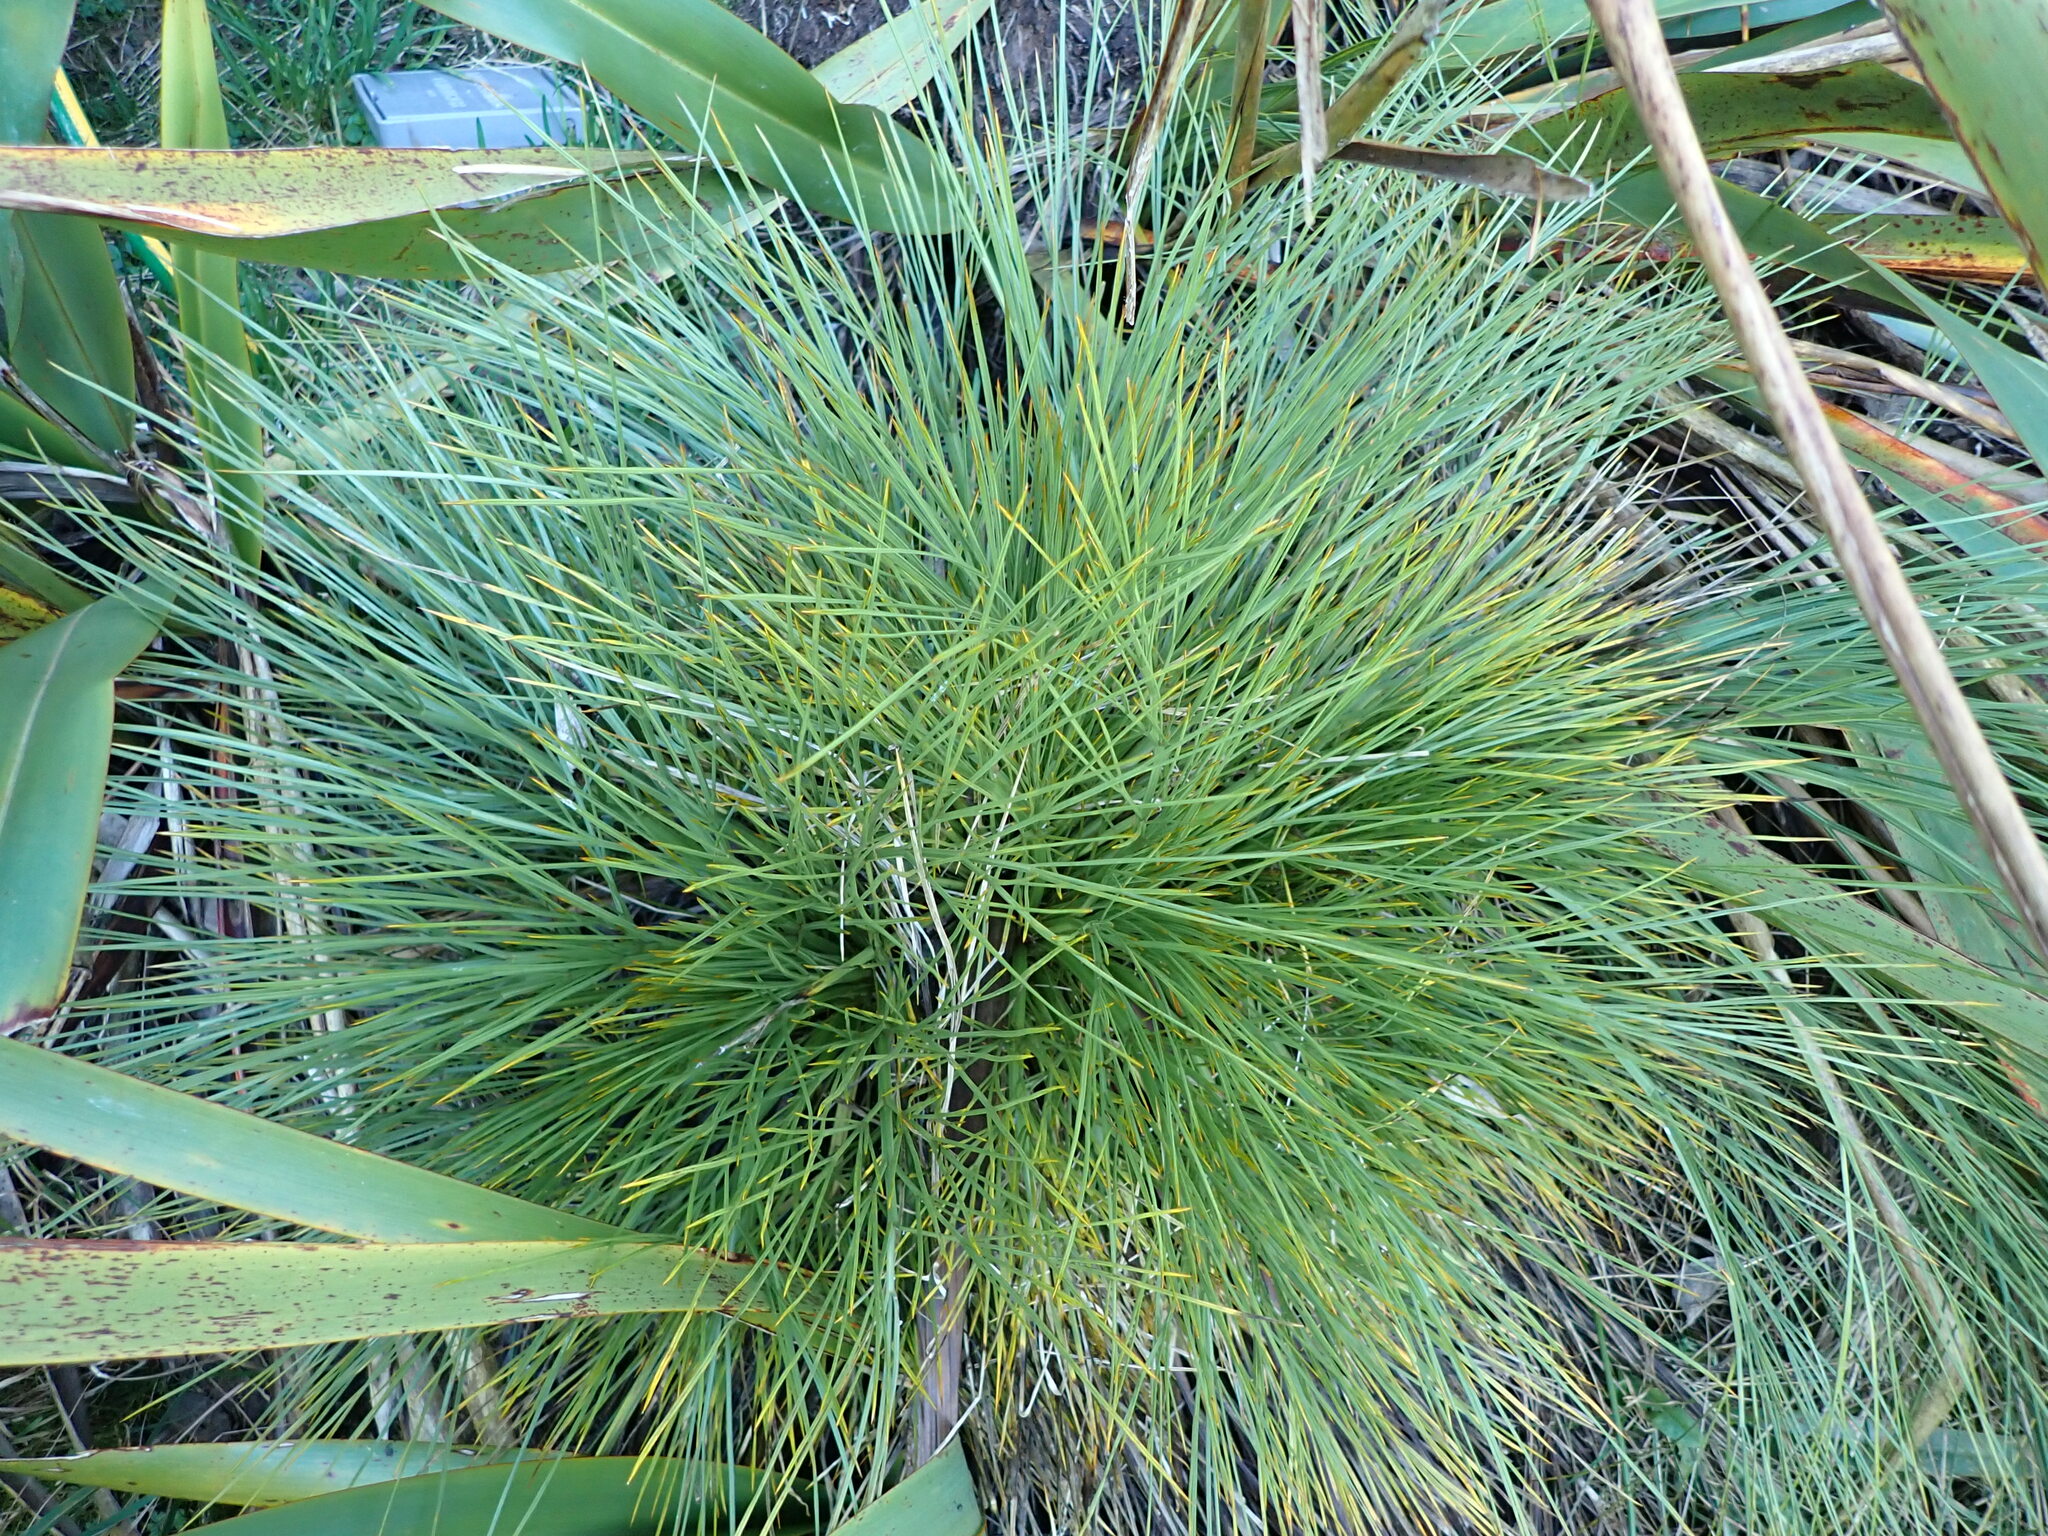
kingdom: Plantae
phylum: Tracheophyta
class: Magnoliopsida
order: Apiales
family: Apiaceae
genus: Aciphylla
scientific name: Aciphylla squarrosa
